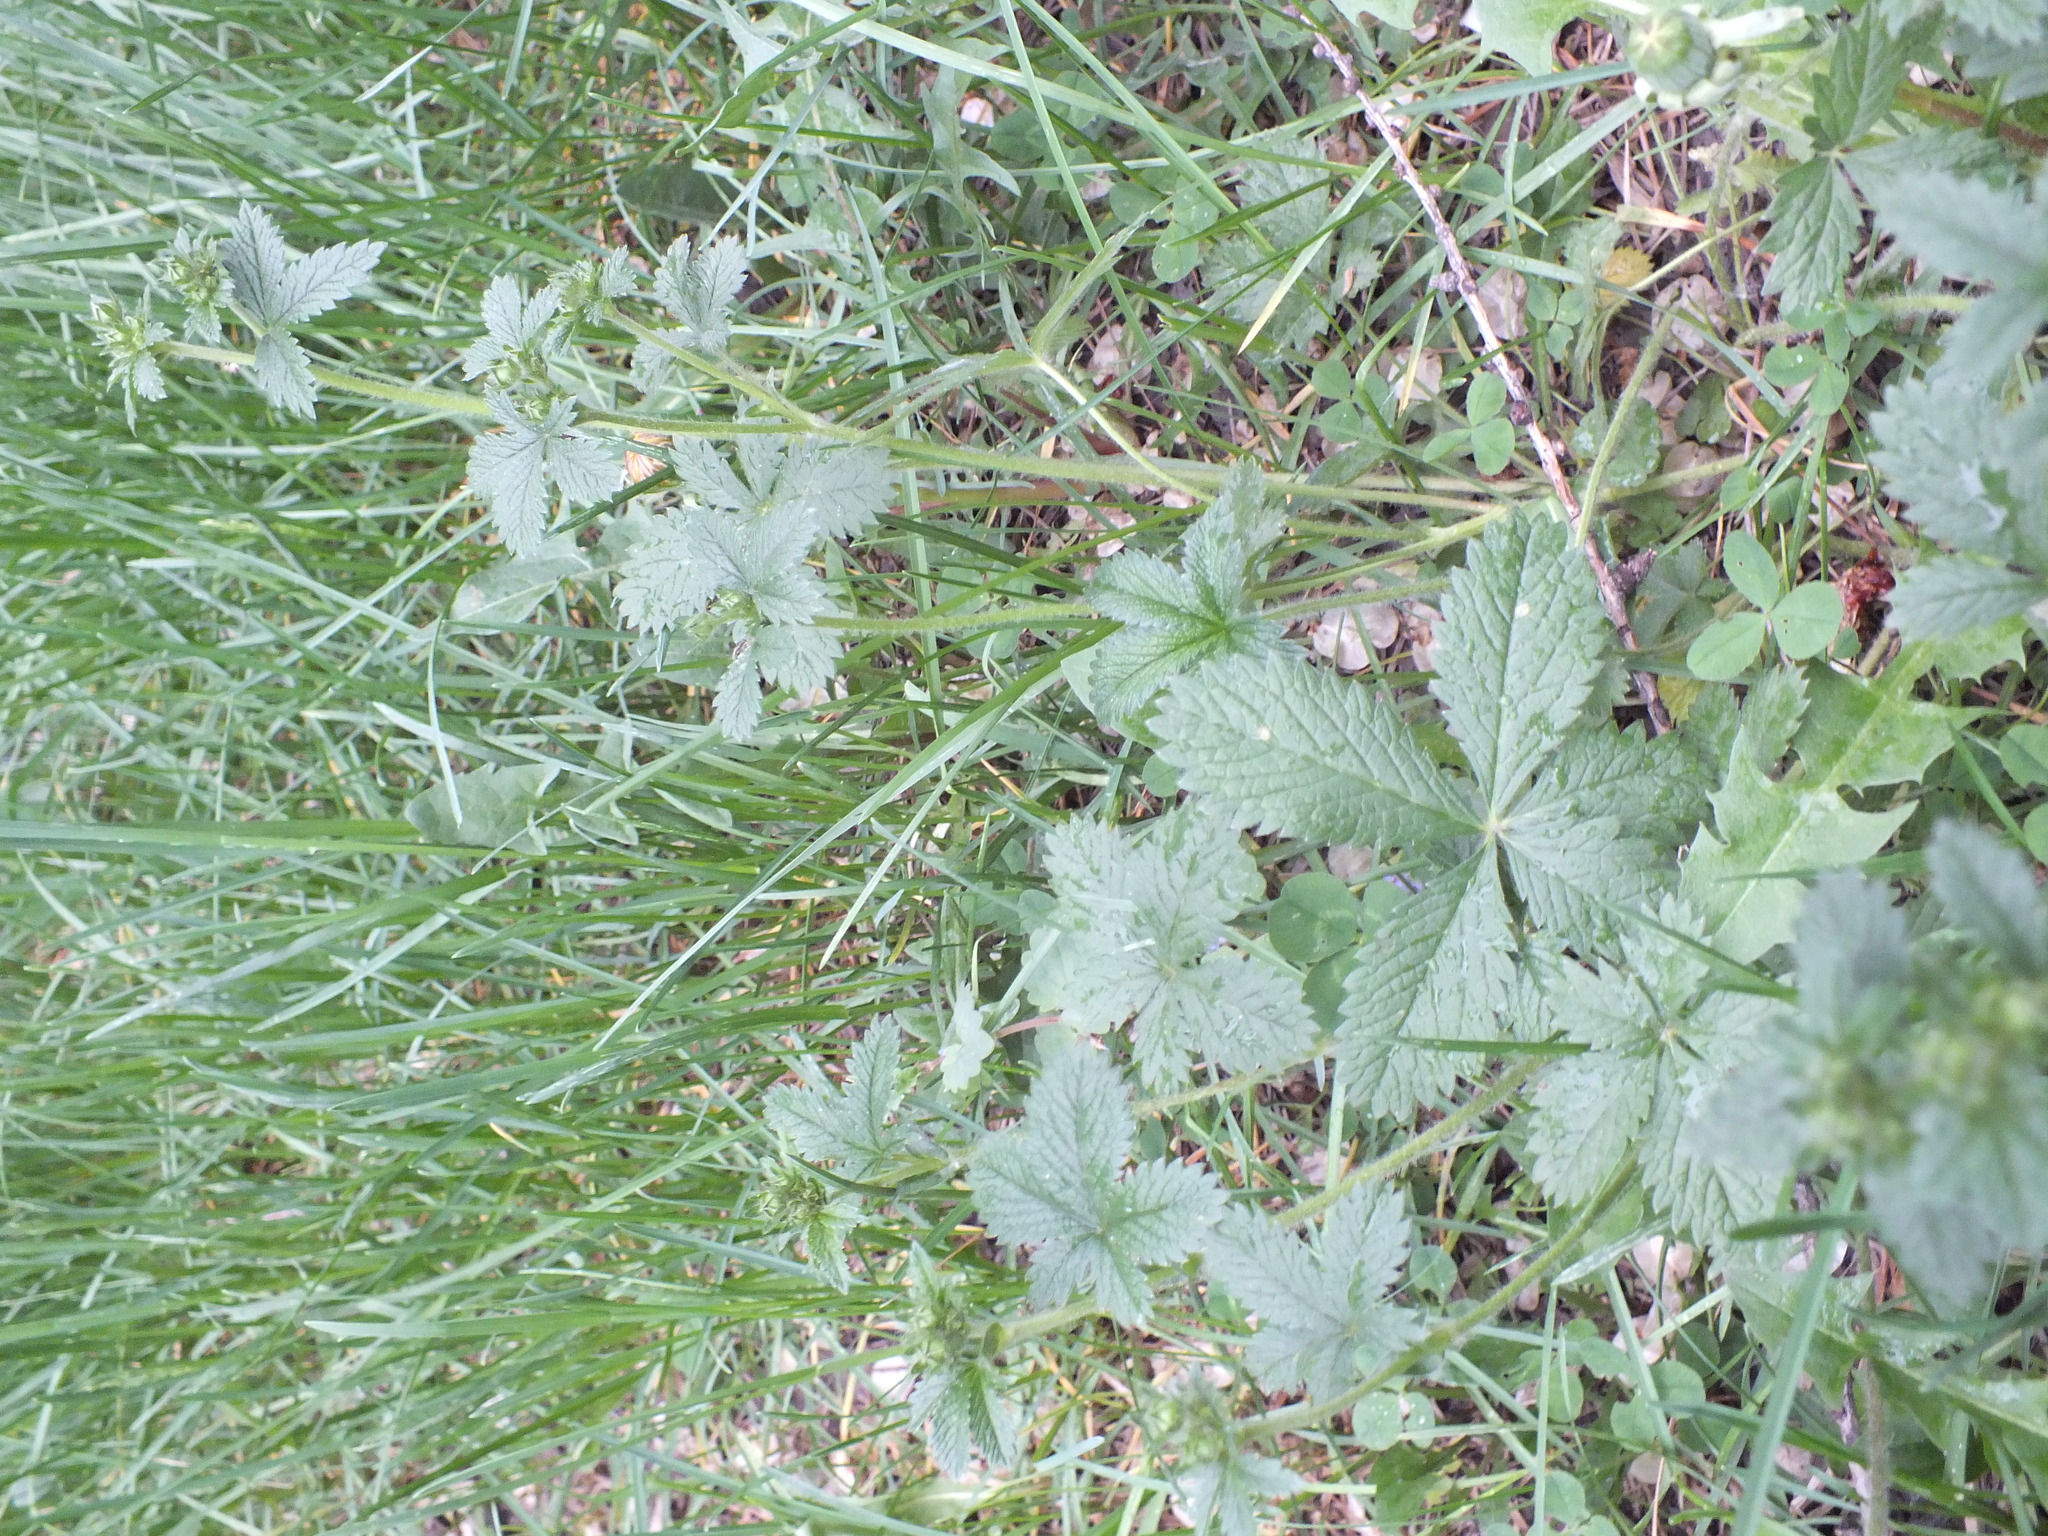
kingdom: Plantae
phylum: Tracheophyta
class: Magnoliopsida
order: Rosales
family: Rosaceae
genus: Potentilla
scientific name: Potentilla chrysantha
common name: Thuringian cinquefoil
